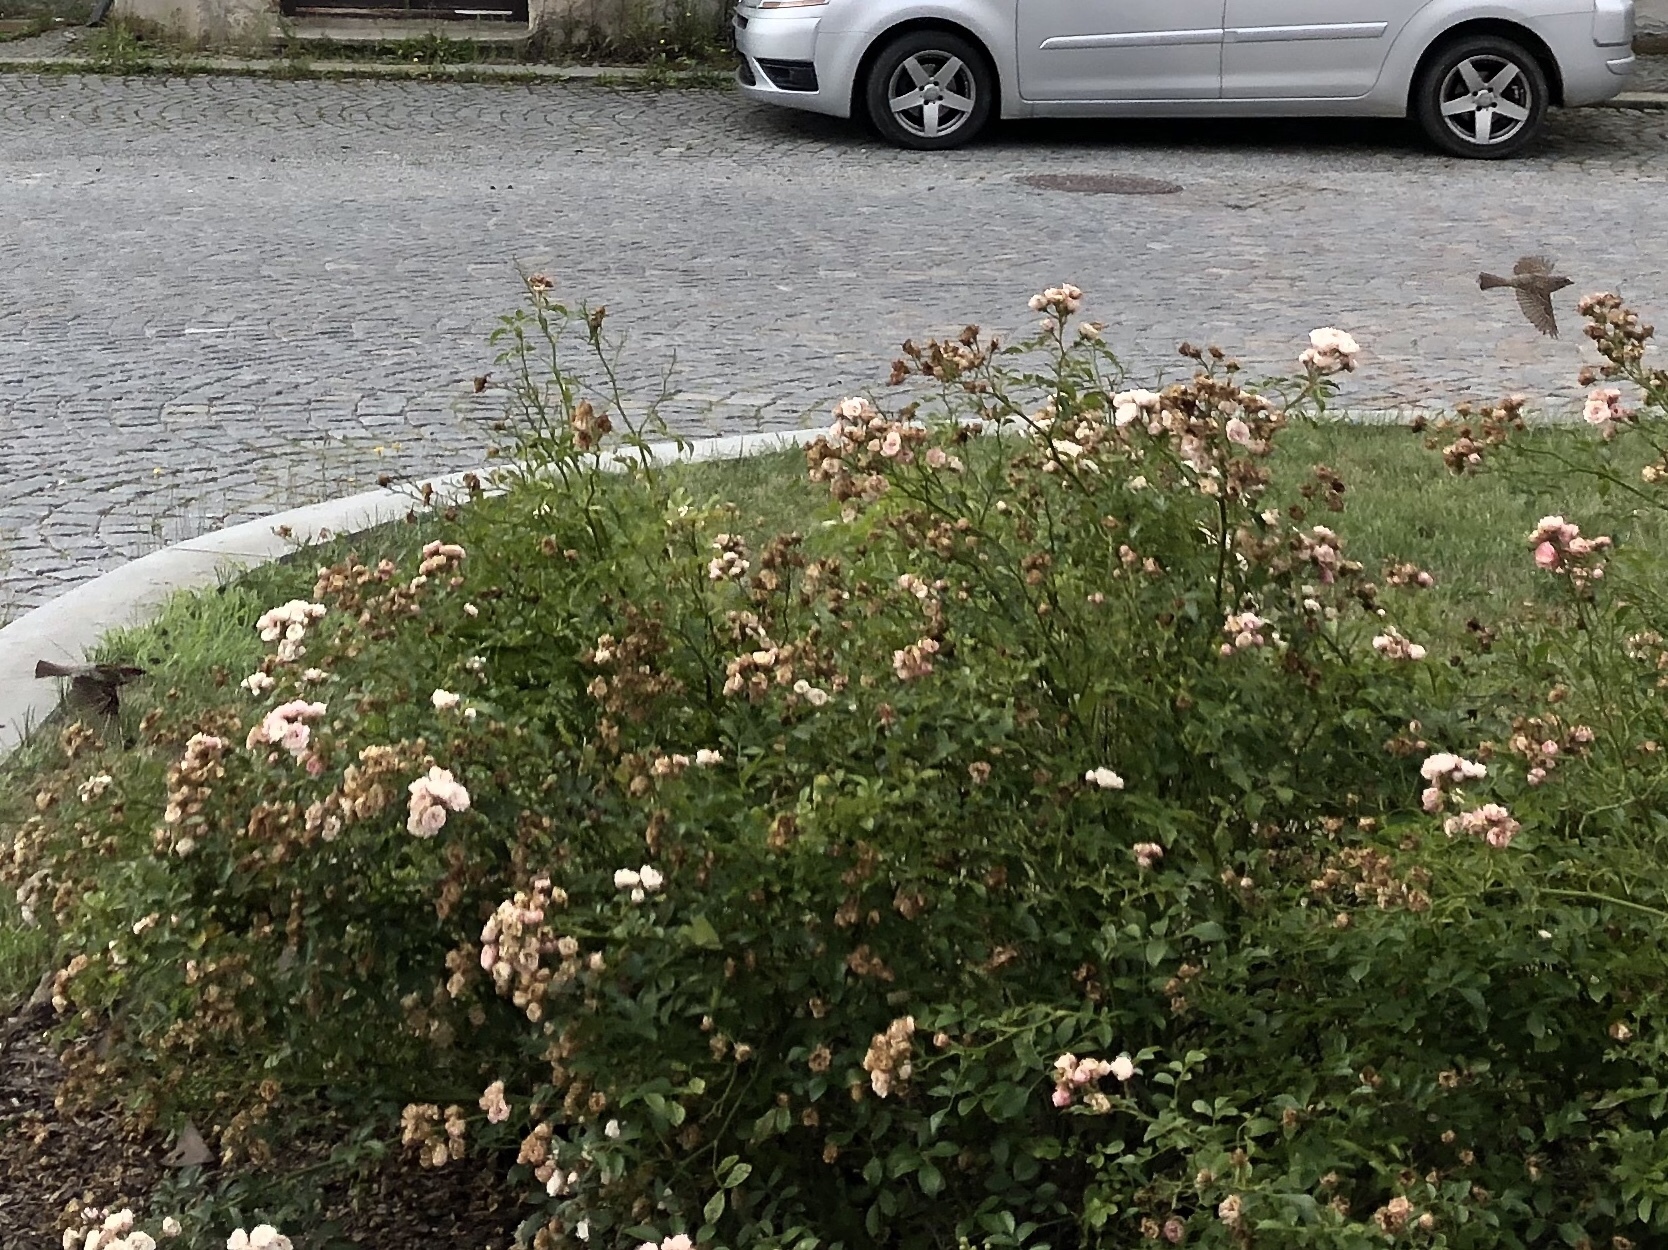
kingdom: Animalia
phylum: Chordata
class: Aves
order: Passeriformes
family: Passeridae
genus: Passer
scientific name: Passer domesticus
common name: House sparrow
